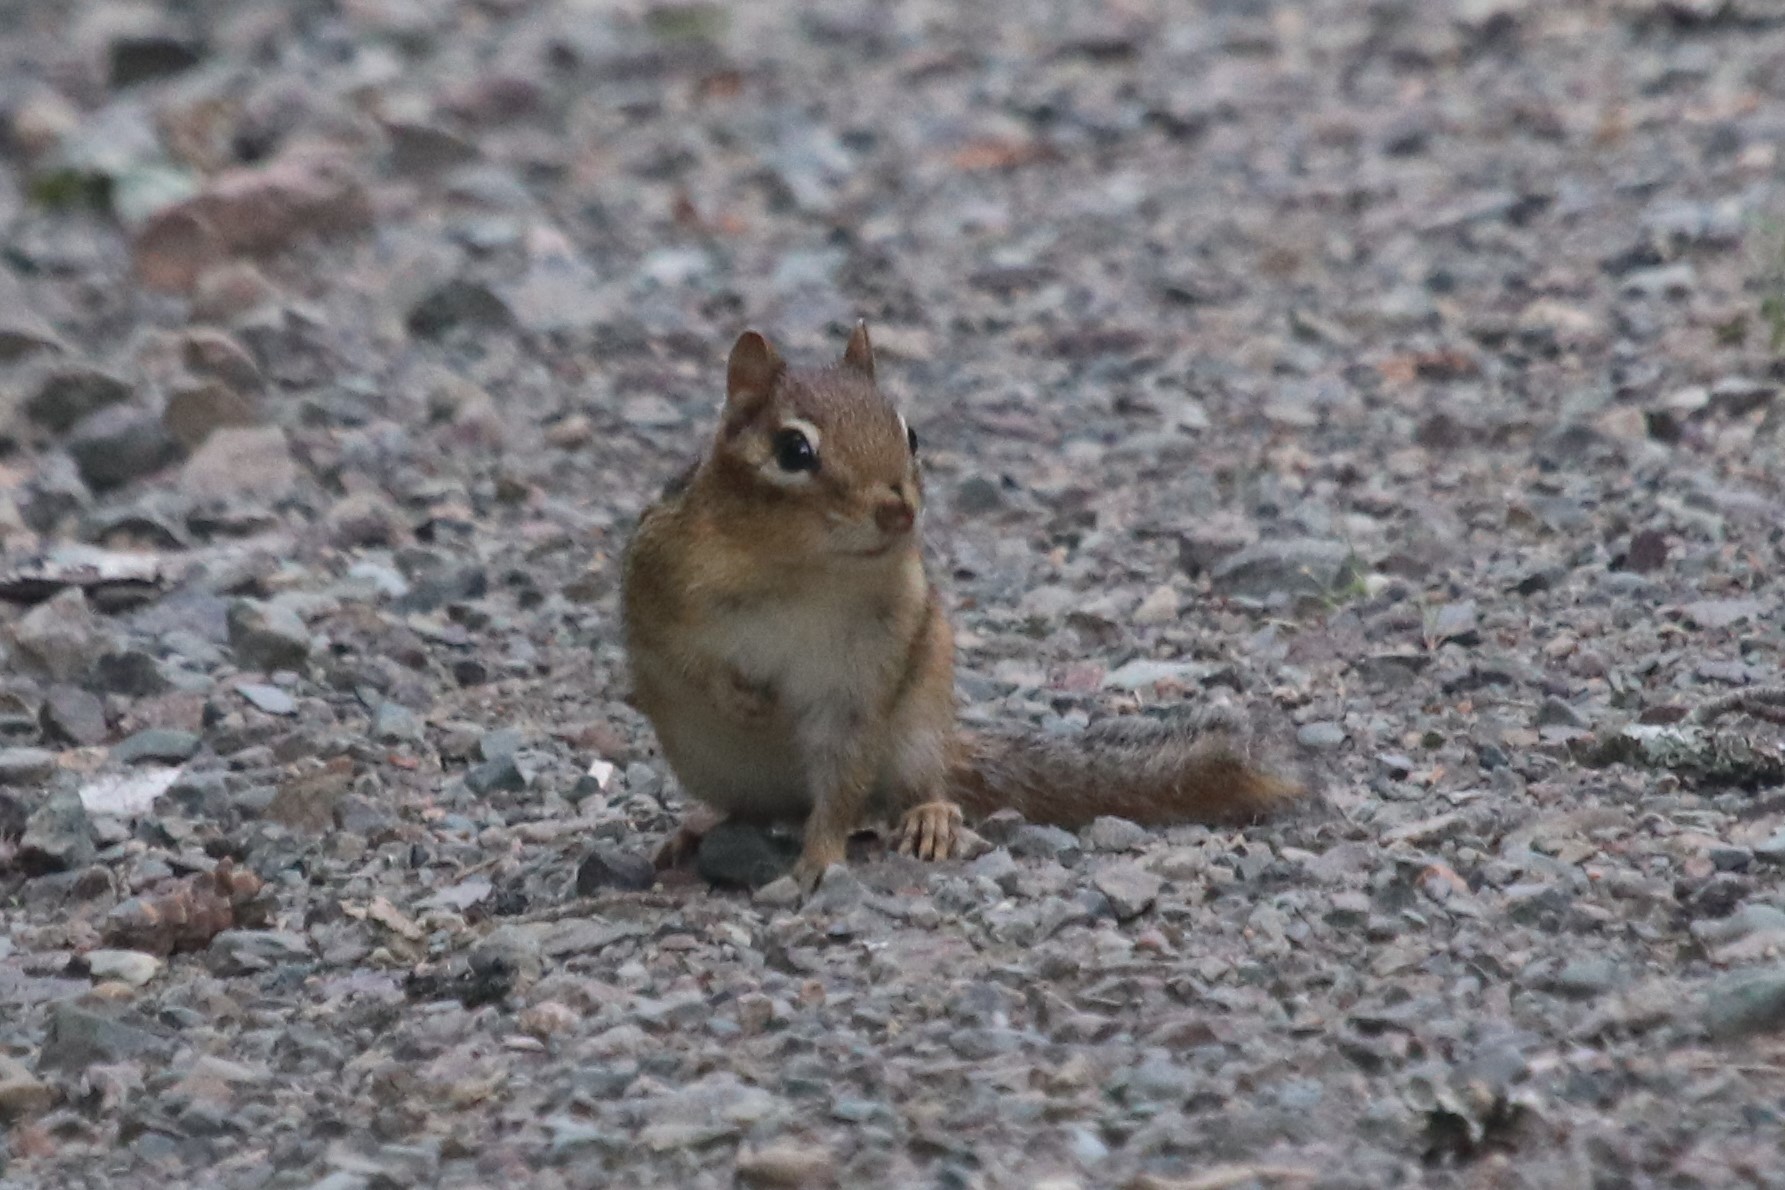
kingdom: Animalia
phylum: Chordata
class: Mammalia
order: Rodentia
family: Sciuridae
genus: Tamias
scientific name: Tamias striatus
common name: Eastern chipmunk
